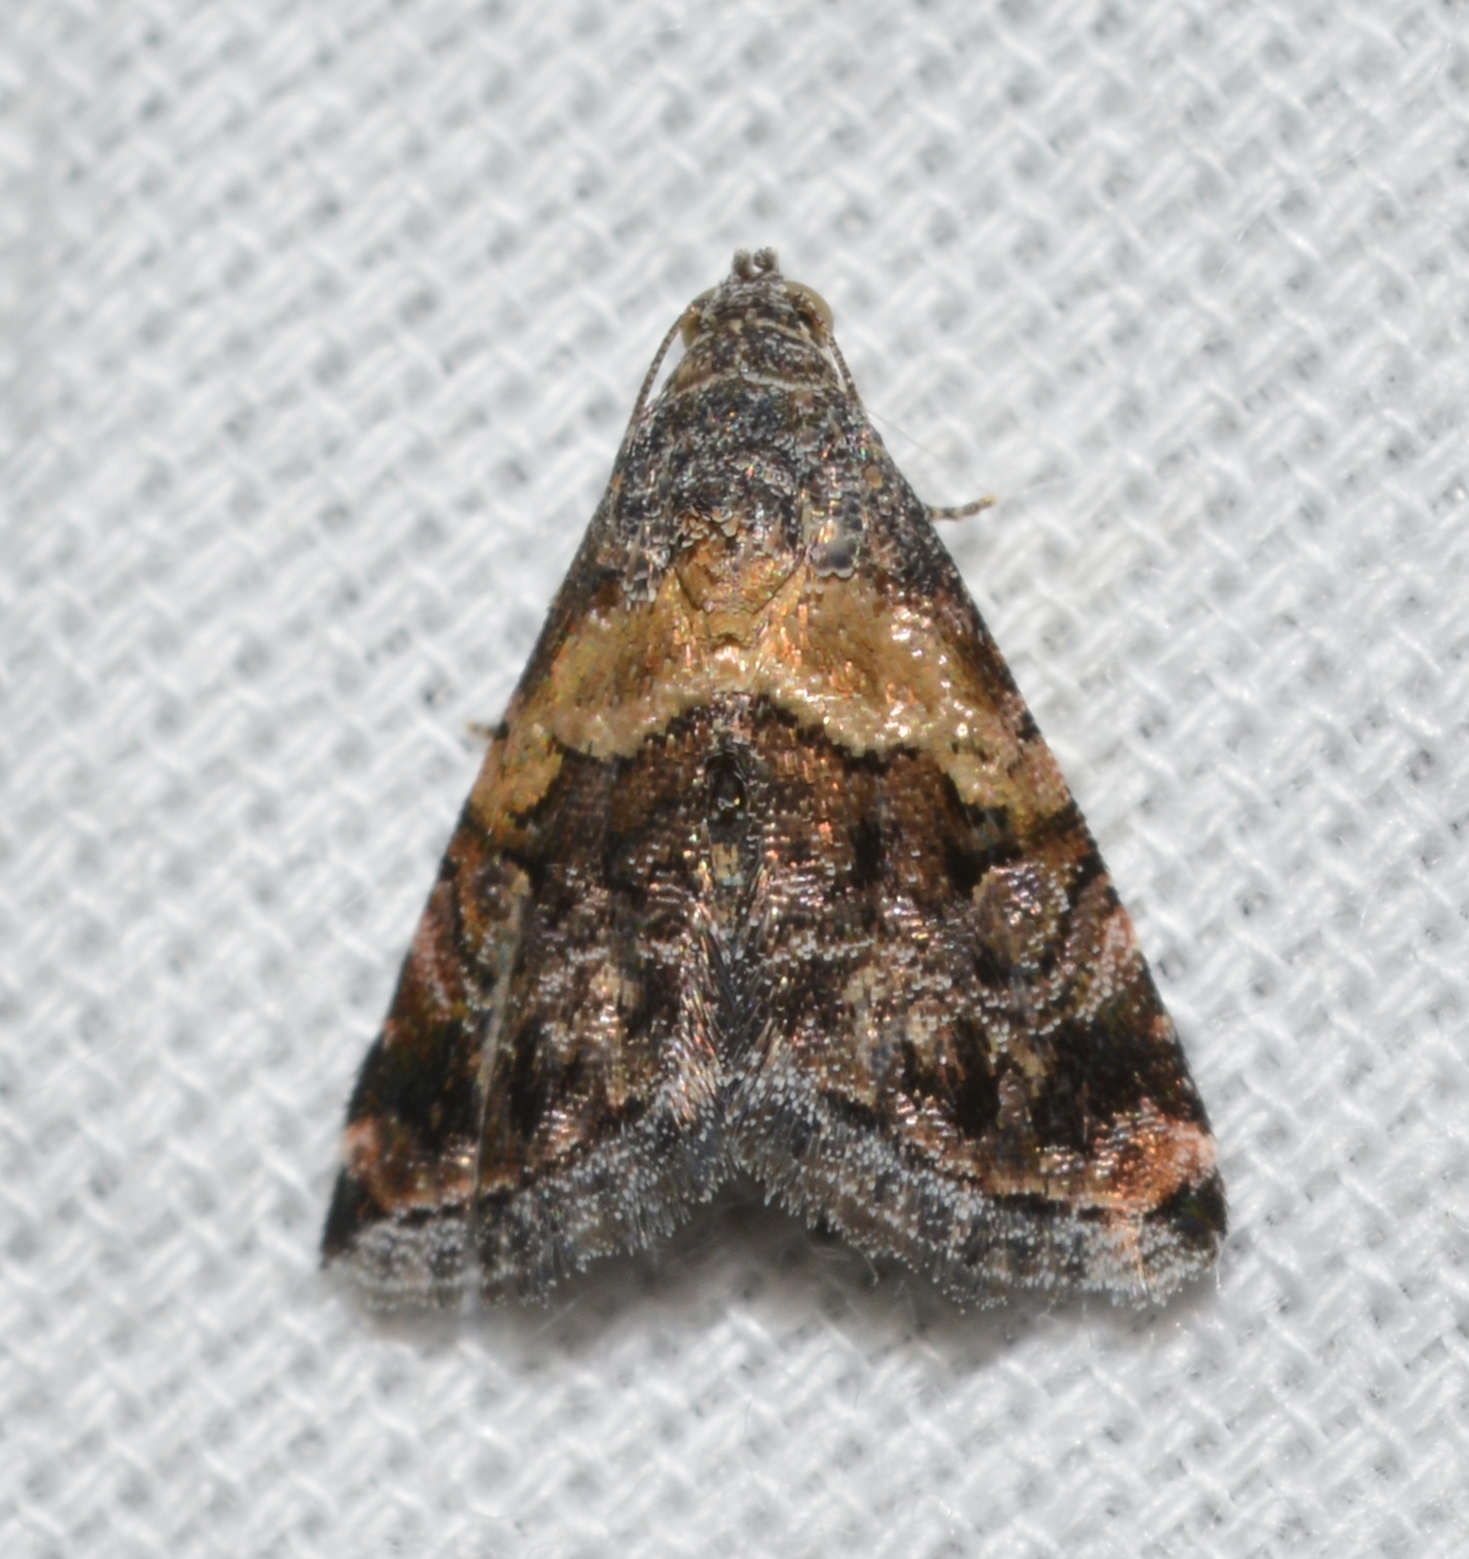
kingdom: Animalia
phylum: Arthropoda
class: Insecta
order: Lepidoptera
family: Noctuidae
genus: Tripudia
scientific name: Tripudia balteata
